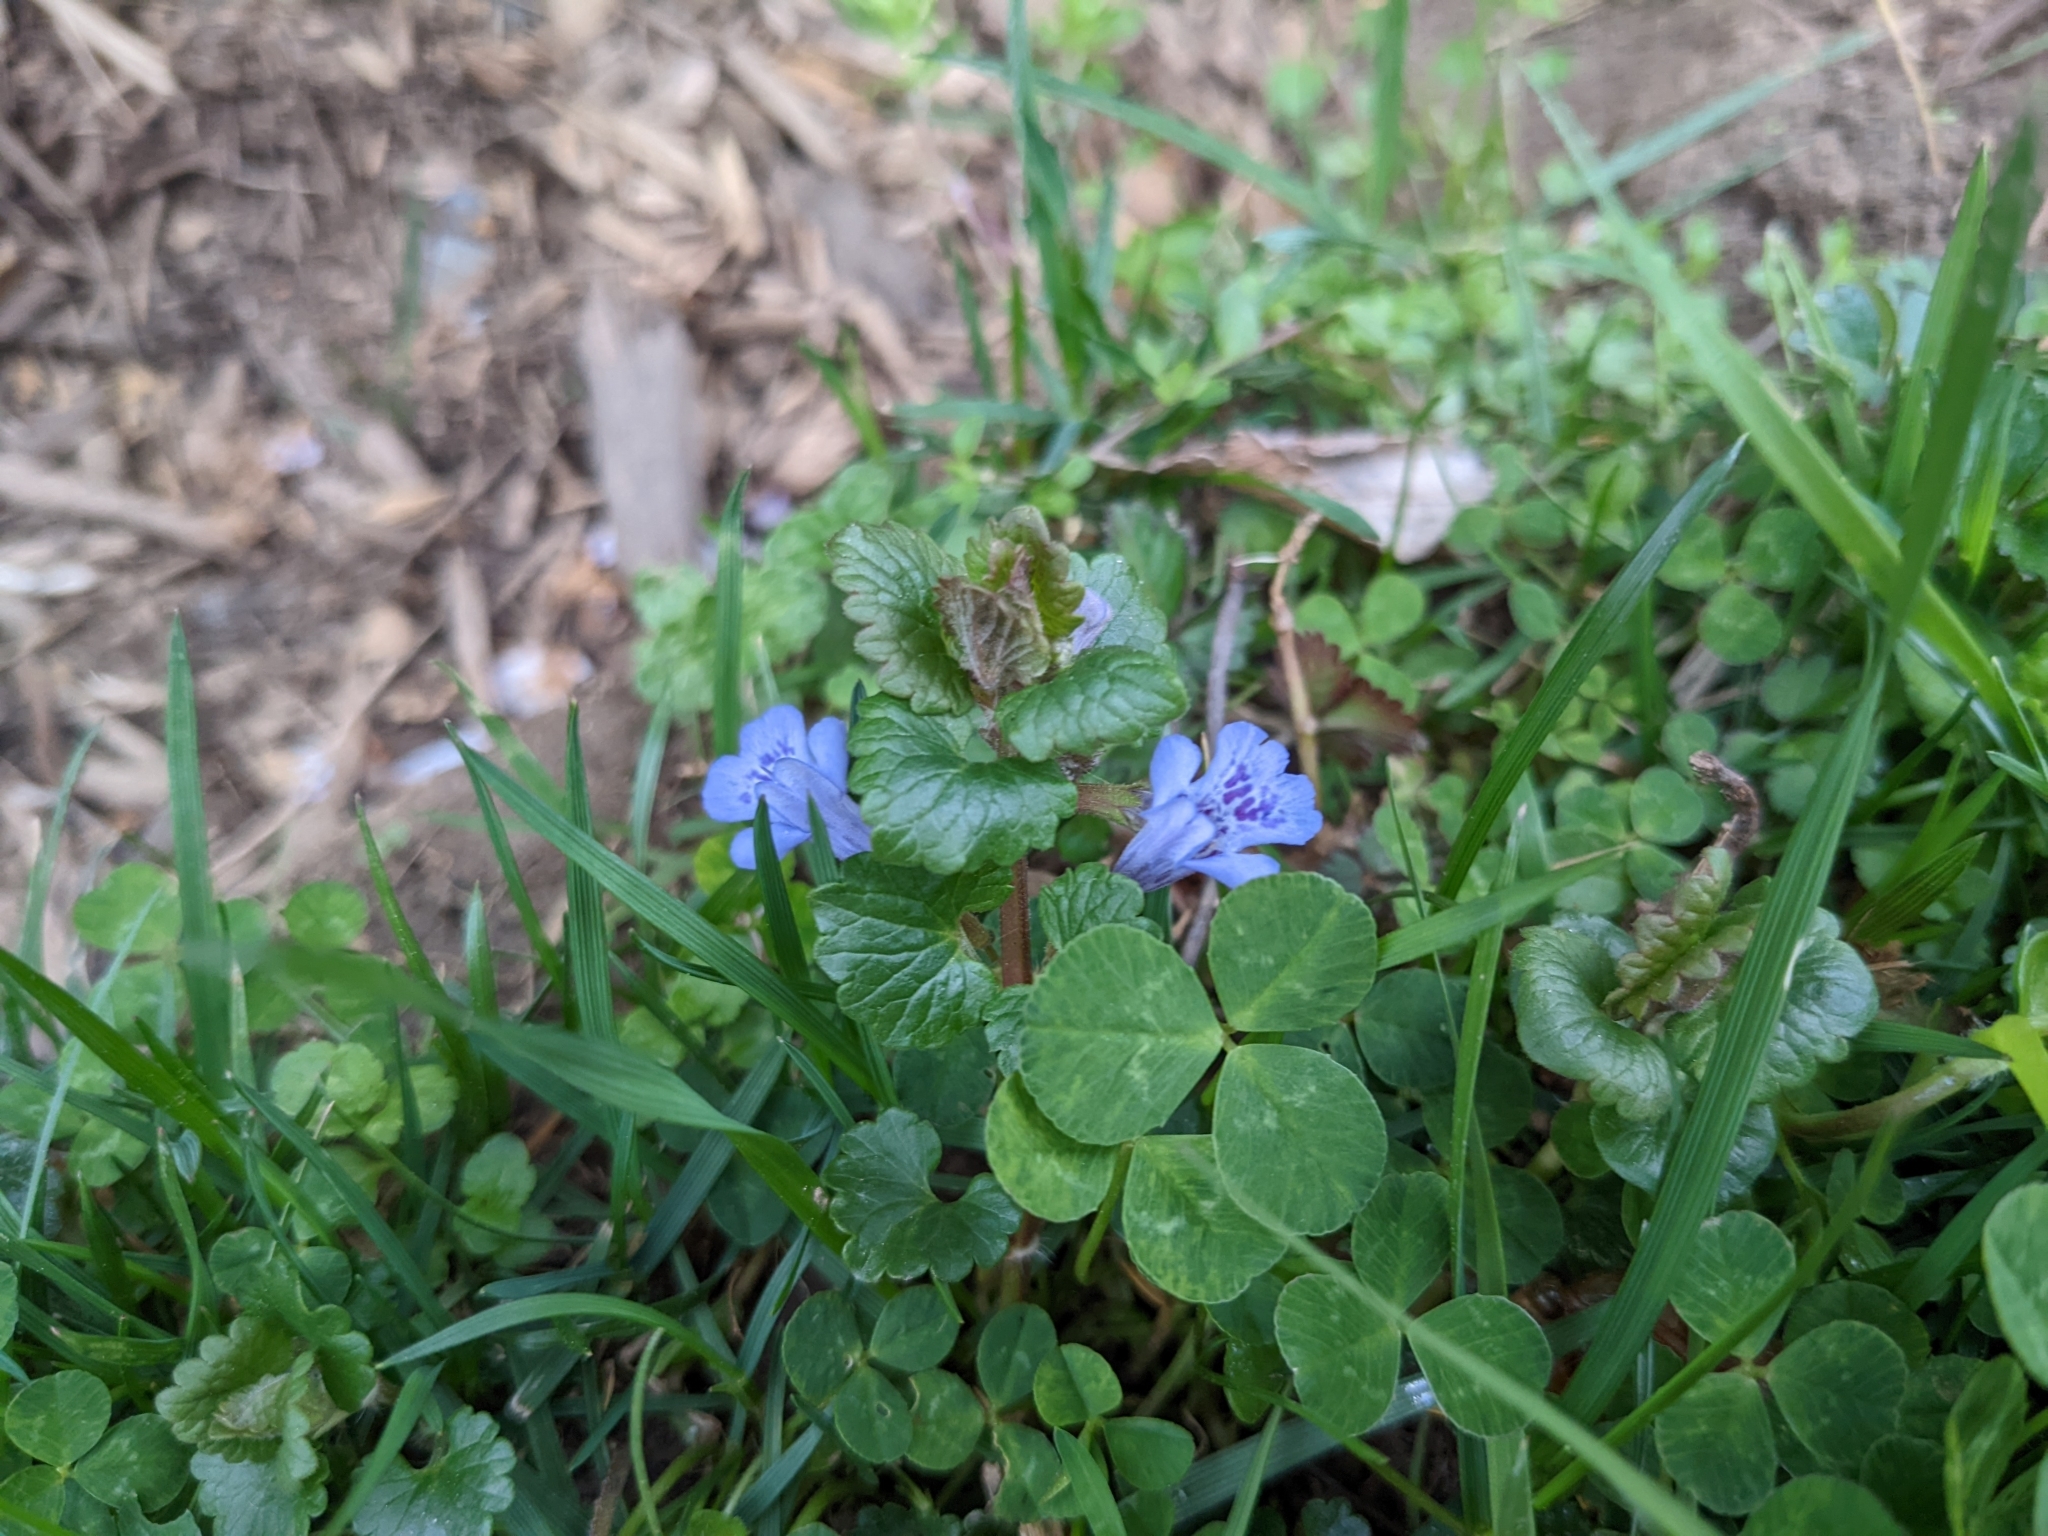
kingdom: Plantae
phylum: Tracheophyta
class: Magnoliopsida
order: Lamiales
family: Lamiaceae
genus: Glechoma
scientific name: Glechoma hederacea
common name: Ground ivy
